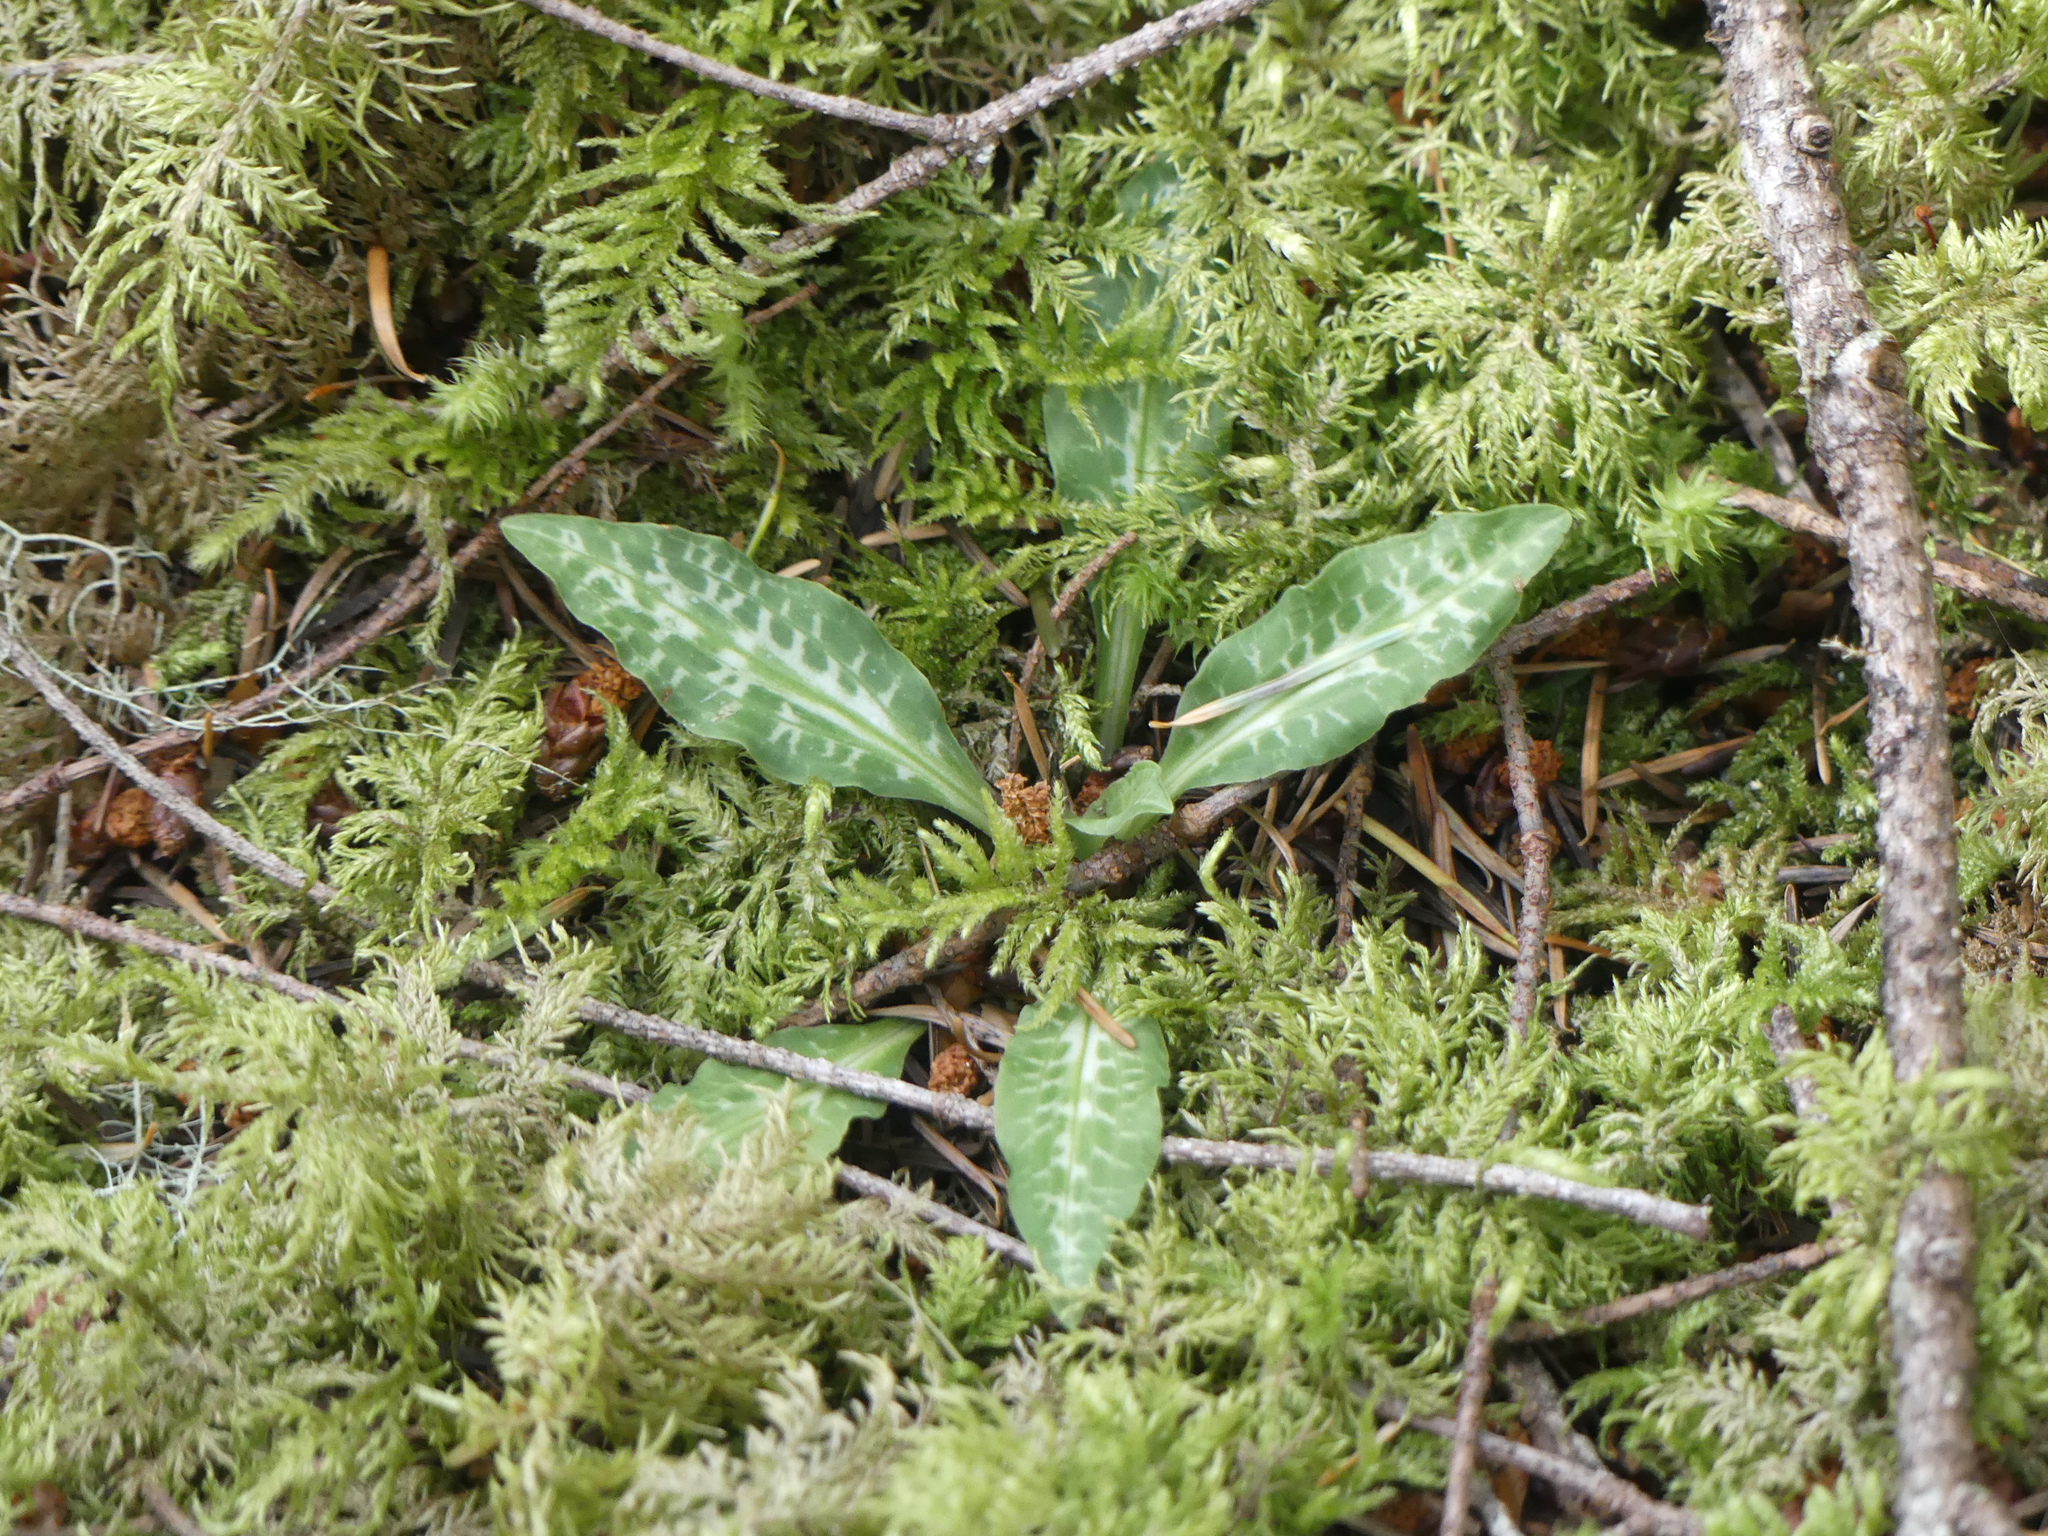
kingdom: Plantae
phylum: Tracheophyta
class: Liliopsida
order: Asparagales
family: Orchidaceae
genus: Goodyera
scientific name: Goodyera oblongifolia
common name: Giant rattlesnake-plantain
